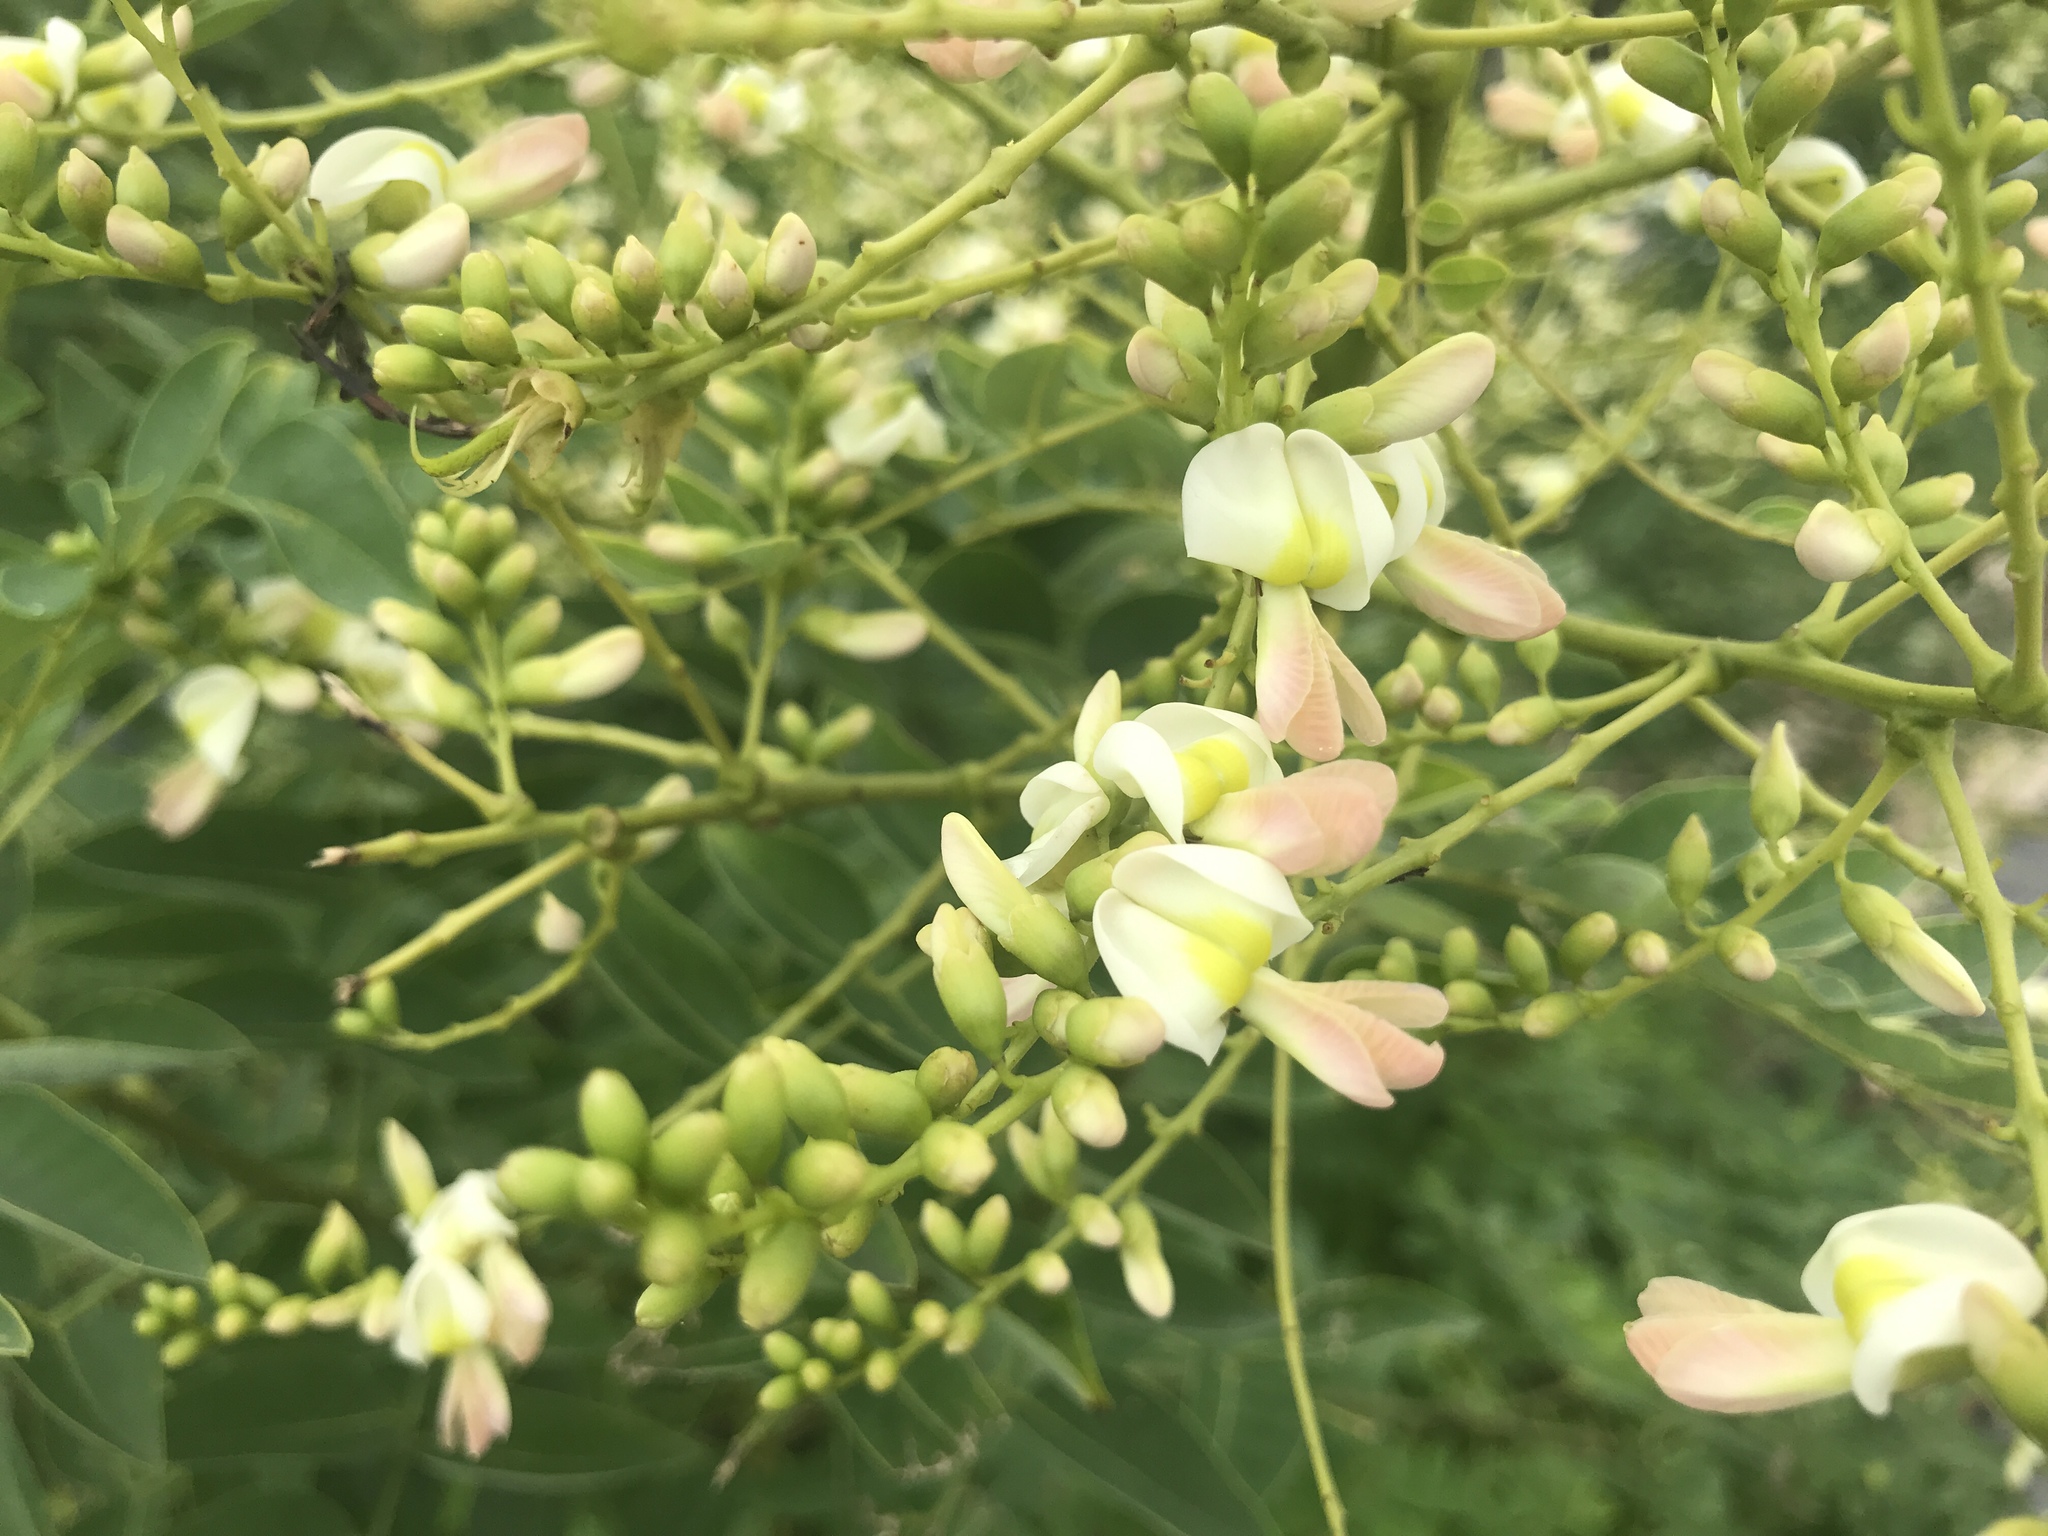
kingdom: Plantae
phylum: Tracheophyta
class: Magnoliopsida
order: Fabales
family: Fabaceae
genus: Styphnolobium
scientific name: Styphnolobium japonicum
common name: Chinese scholartree
